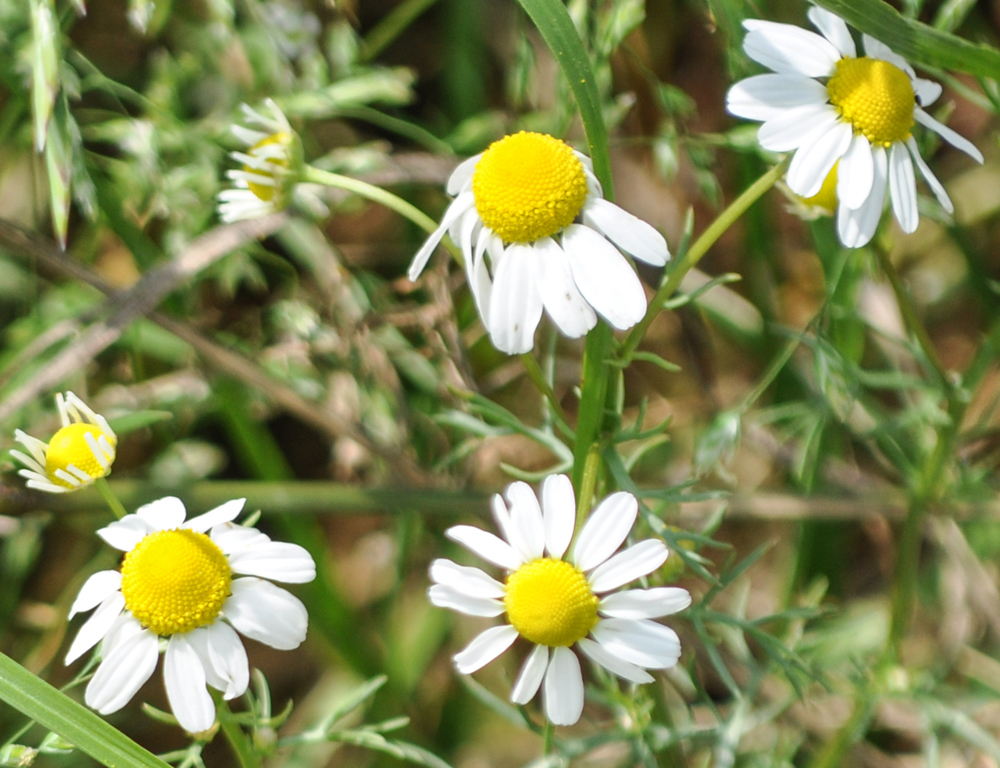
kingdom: Plantae
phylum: Tracheophyta
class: Magnoliopsida
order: Asterales
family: Asteraceae
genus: Matricaria
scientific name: Matricaria chamomilla
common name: Scented mayweed
